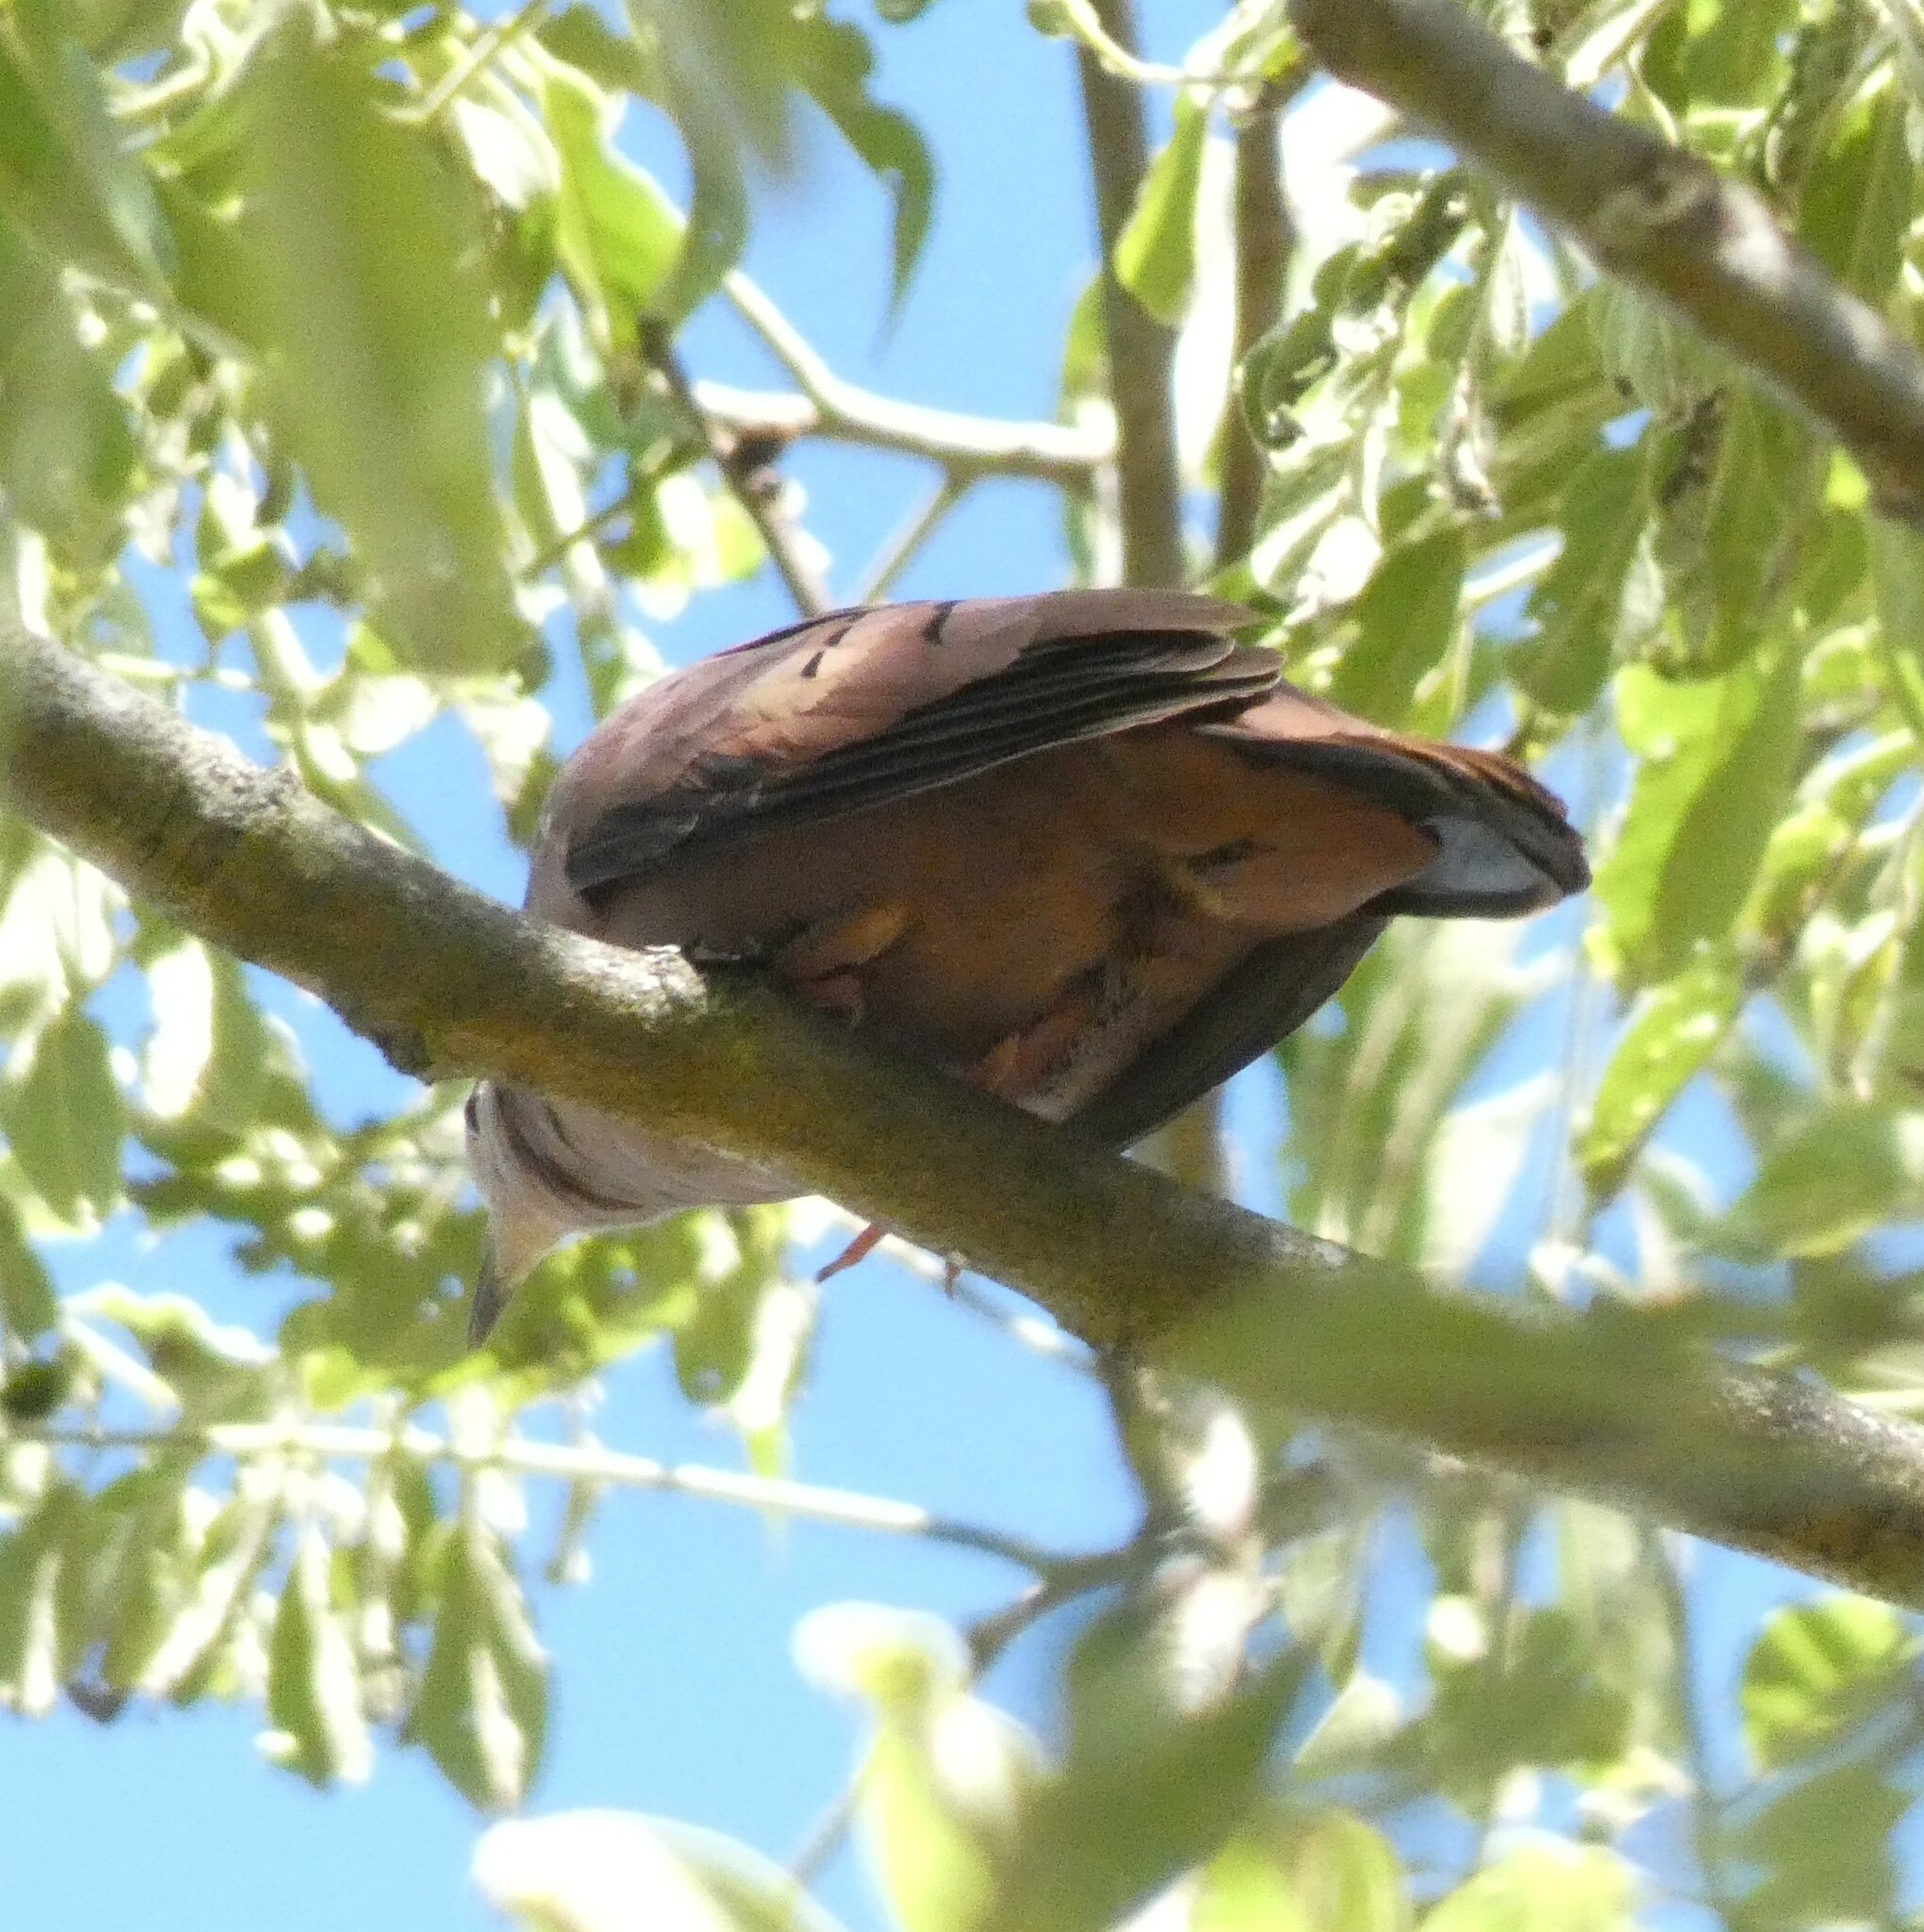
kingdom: Animalia
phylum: Chordata
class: Aves
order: Columbiformes
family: Columbidae
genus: Columbina
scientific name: Columbina talpacoti
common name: Ruddy ground dove
